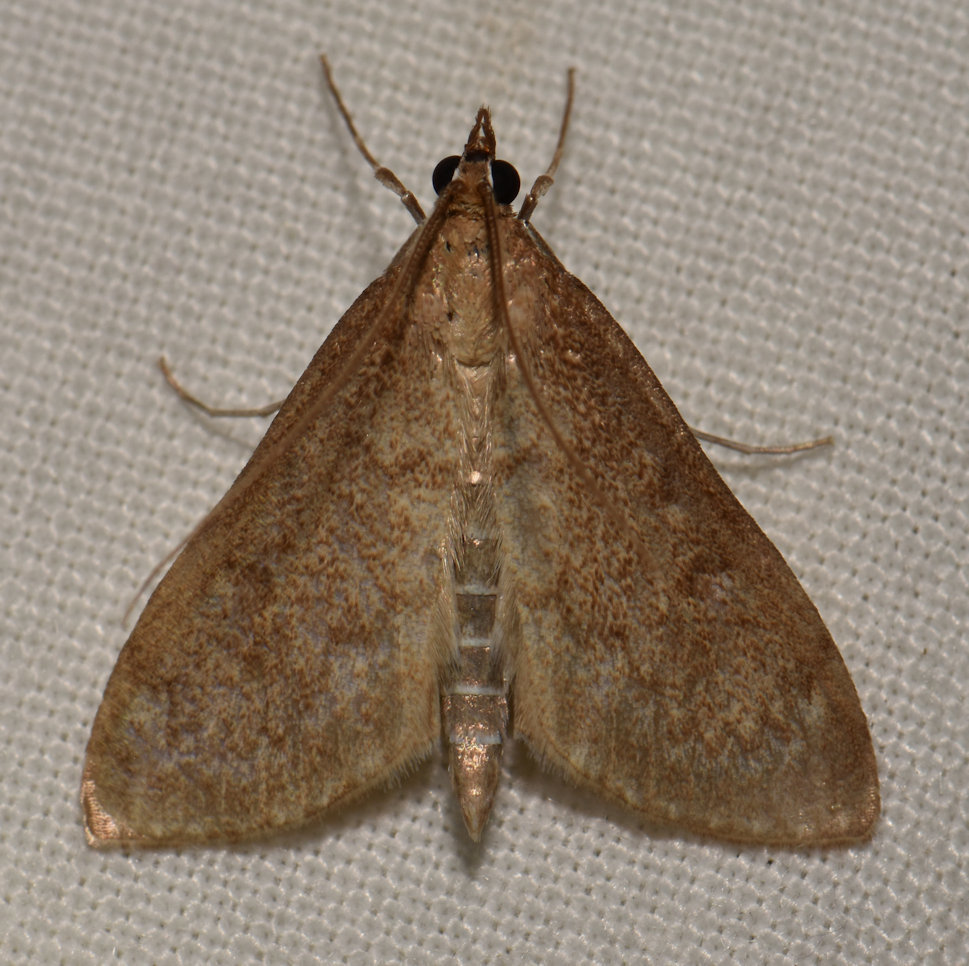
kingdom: Animalia
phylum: Arthropoda
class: Insecta
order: Lepidoptera
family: Crambidae
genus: Saucrobotys
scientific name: Saucrobotys futilalis
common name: Dogbane saucrobotys moth
